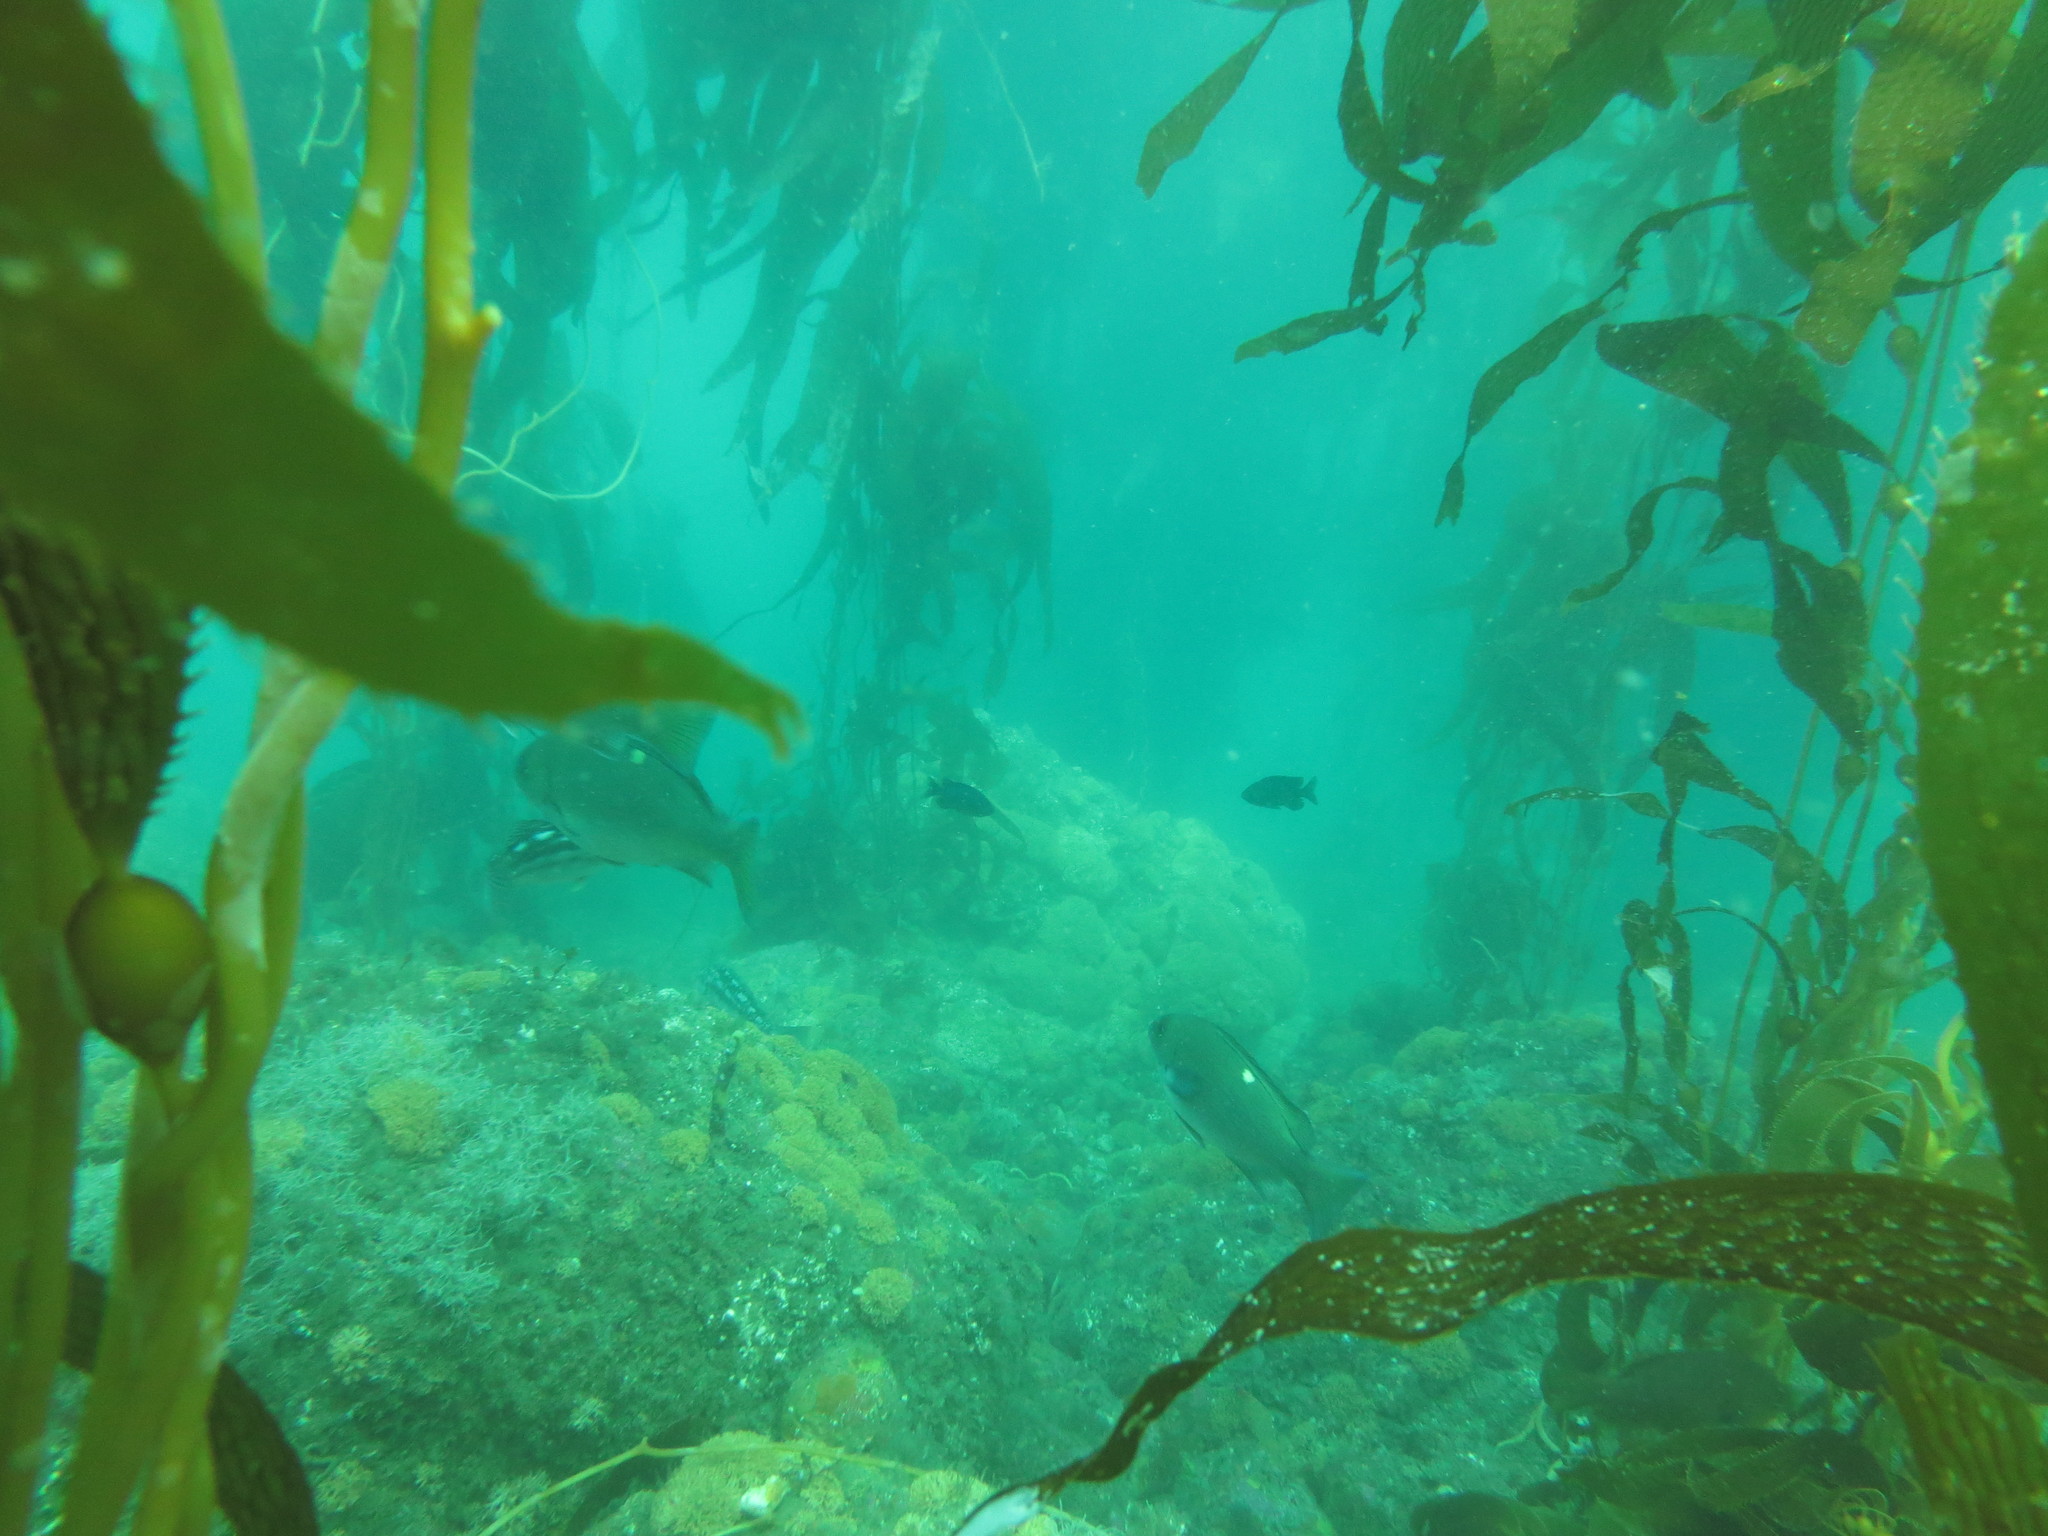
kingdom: Animalia
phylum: Chordata
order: Perciformes
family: Kyphosidae
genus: Girella
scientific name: Girella nigricans
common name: Opaleye
